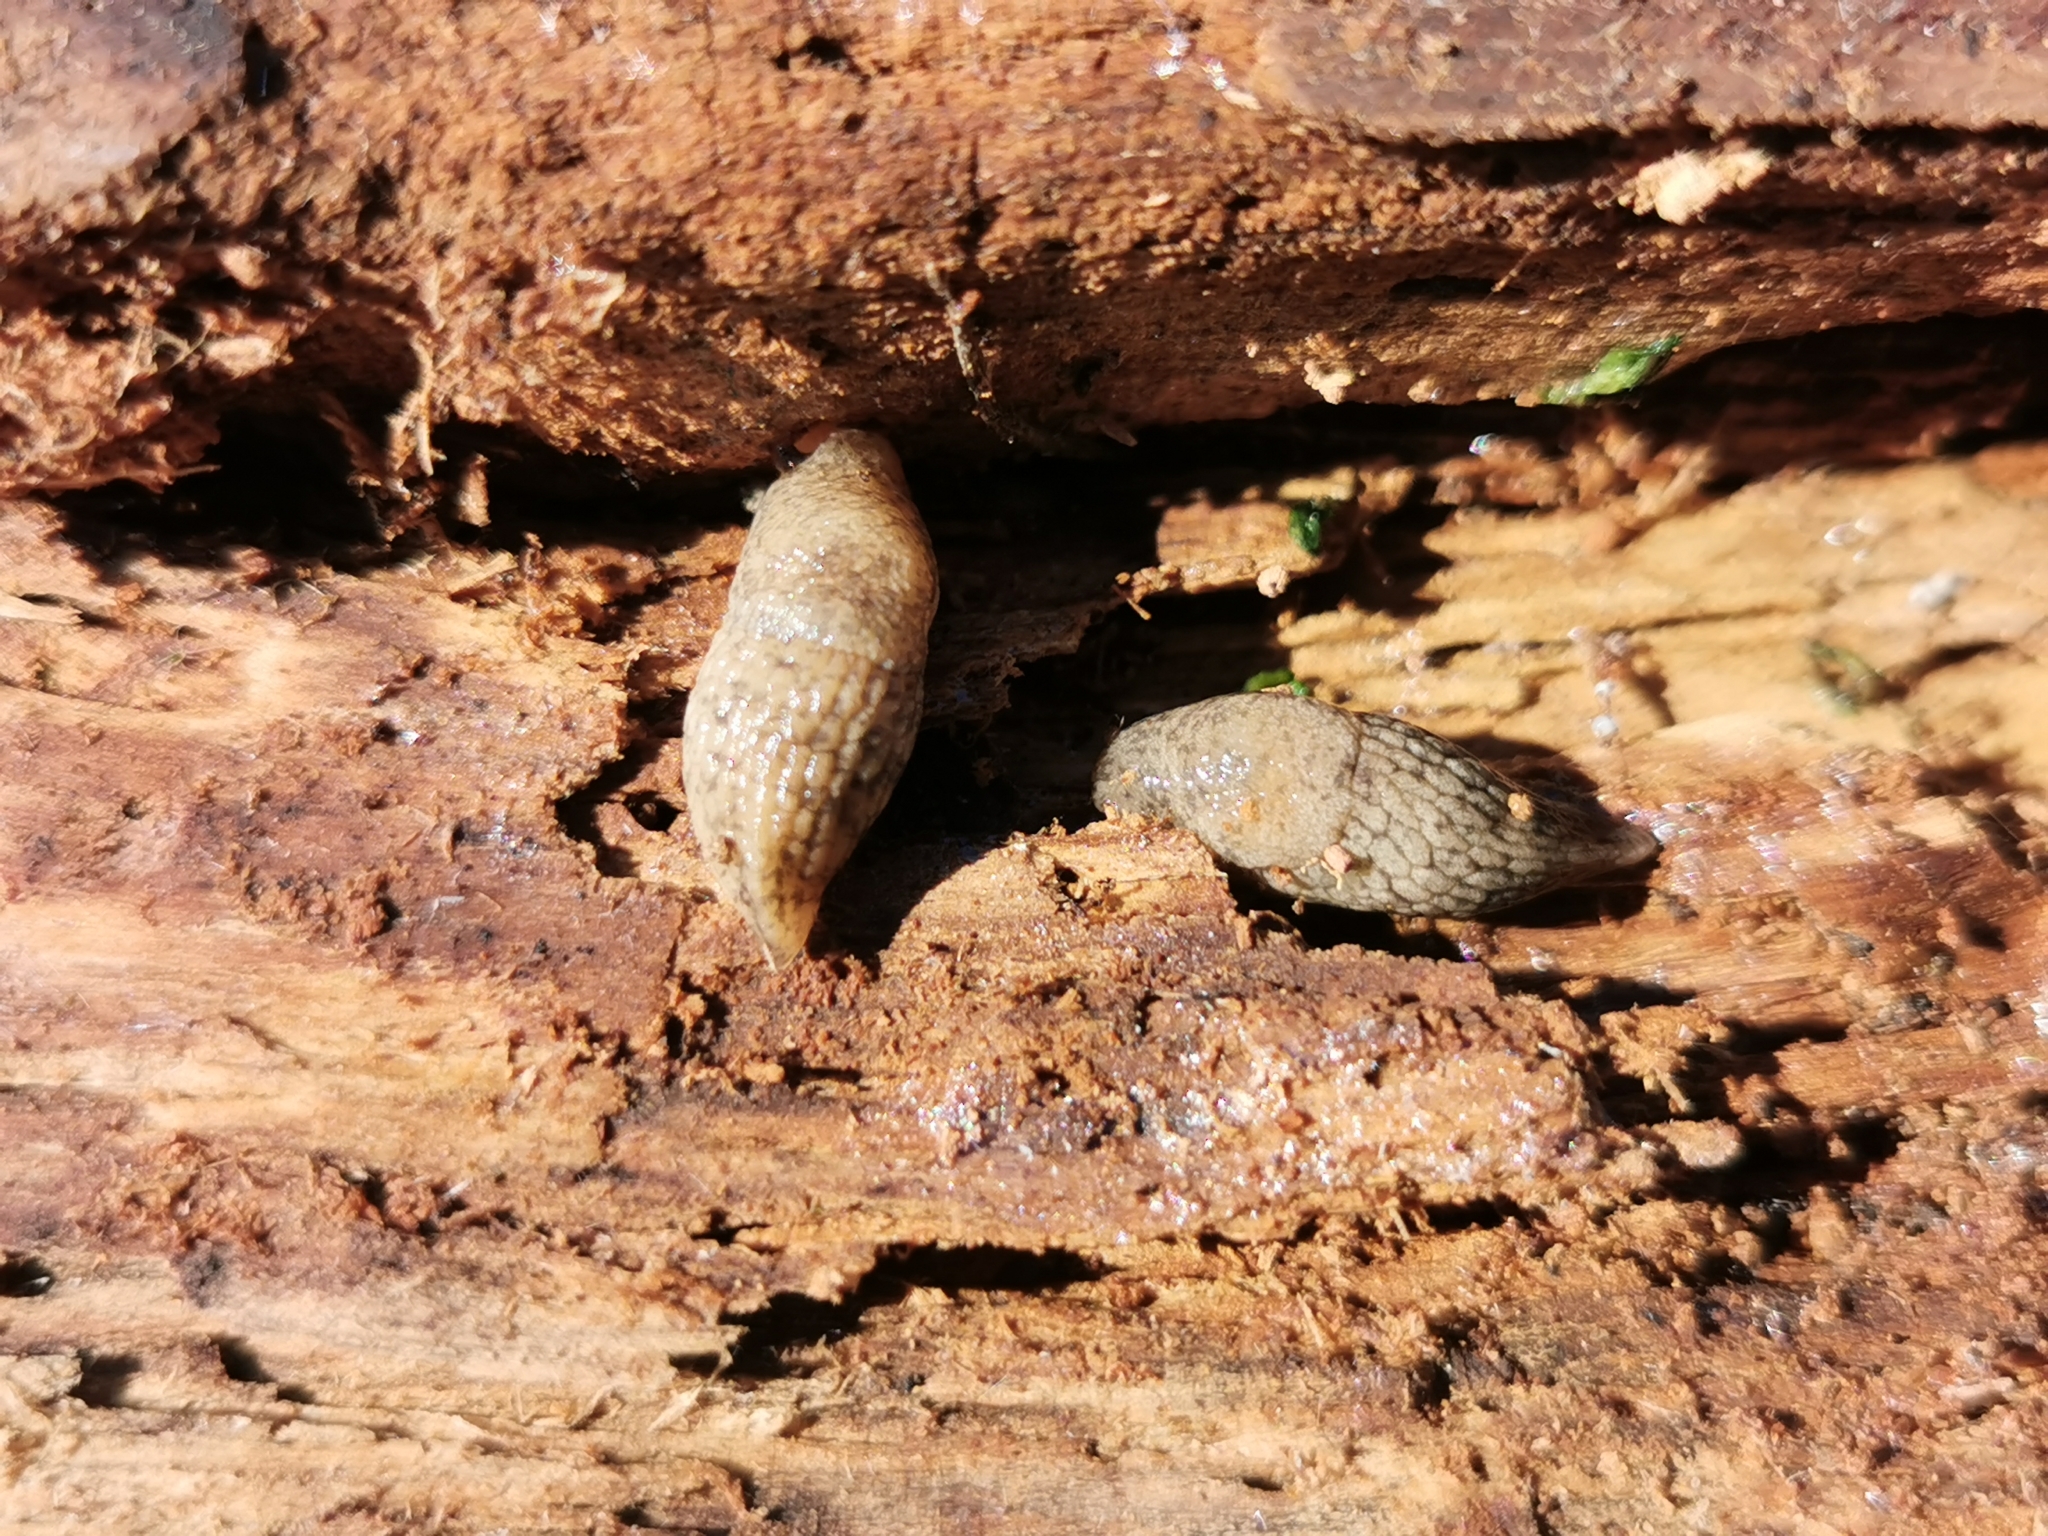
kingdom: Animalia
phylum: Mollusca
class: Gastropoda
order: Stylommatophora
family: Agriolimacidae
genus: Deroceras
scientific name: Deroceras reticulatum
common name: Gray field slug
